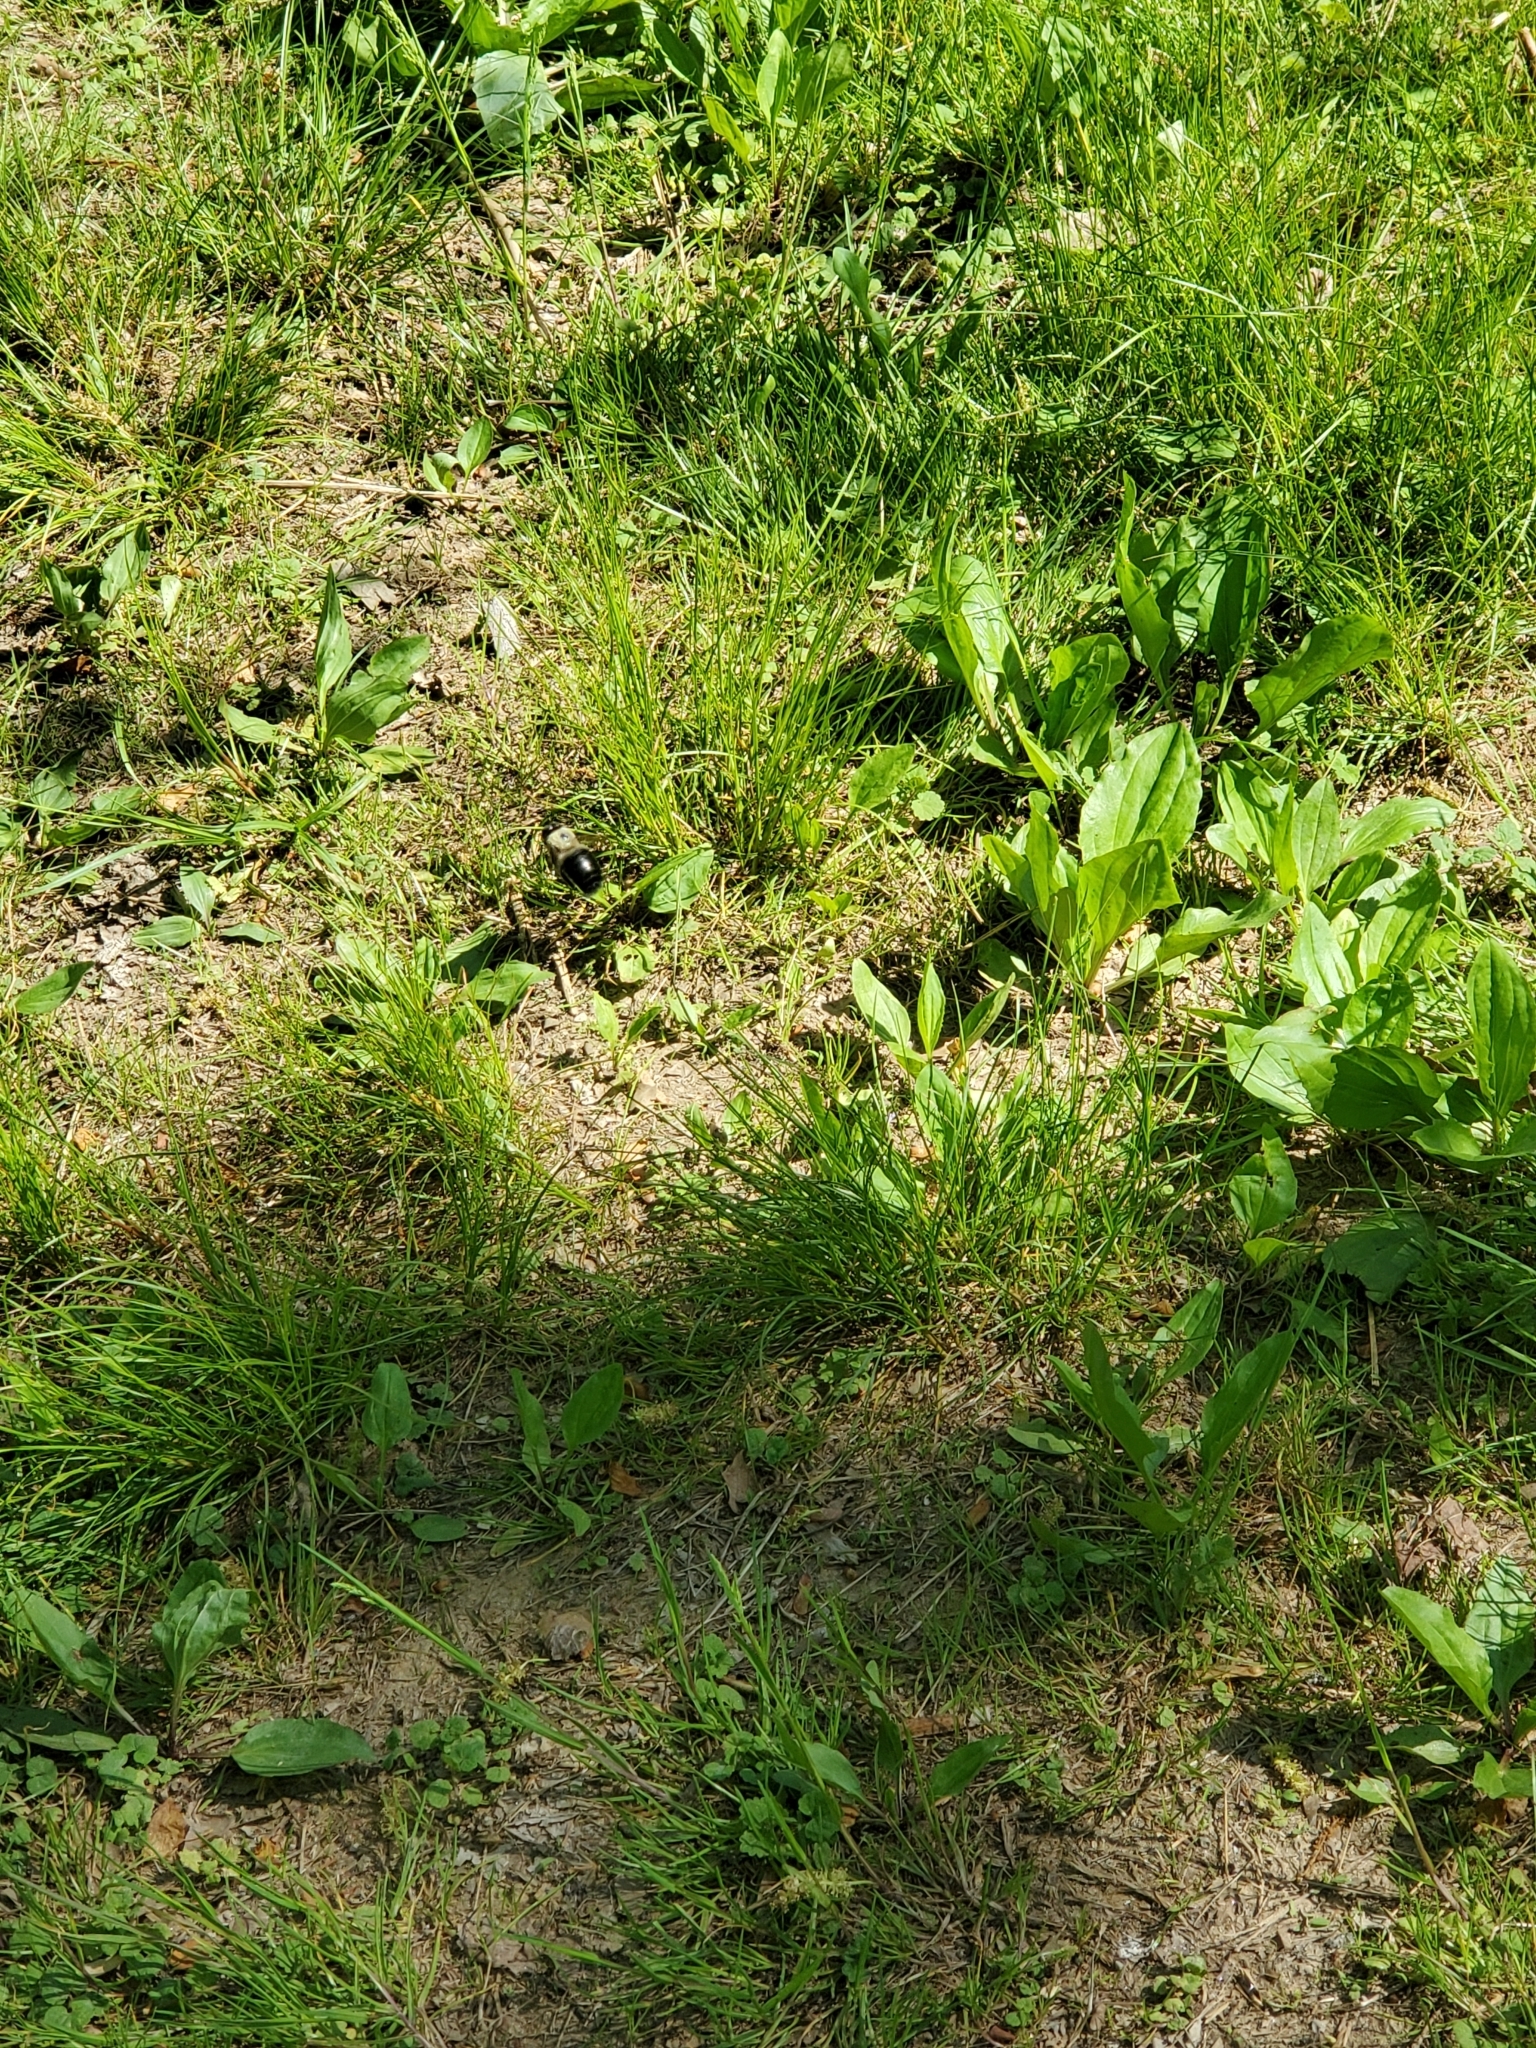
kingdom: Animalia
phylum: Arthropoda
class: Insecta
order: Hymenoptera
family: Apidae
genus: Xylocopa
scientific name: Xylocopa virginica
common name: Carpenter bee
